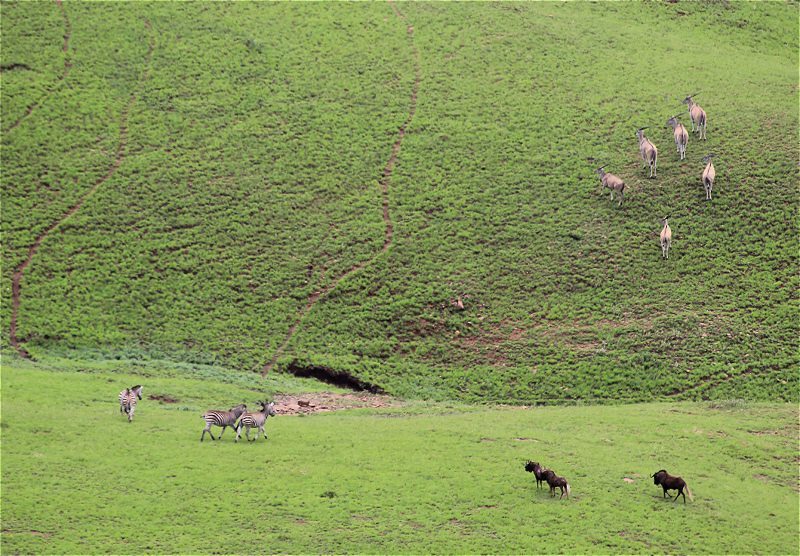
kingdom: Animalia
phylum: Chordata
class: Mammalia
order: Artiodactyla
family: Bovidae
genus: Connochaetes
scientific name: Connochaetes gnou
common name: Black wildebeest
